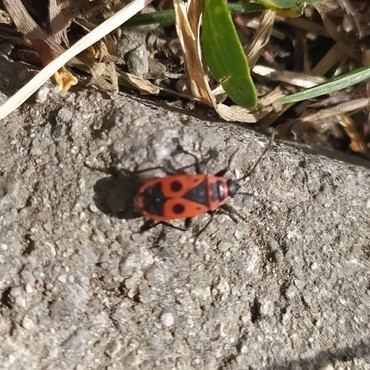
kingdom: Animalia
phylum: Arthropoda
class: Insecta
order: Hemiptera
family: Pyrrhocoridae
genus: Pyrrhocoris
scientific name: Pyrrhocoris apterus
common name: Firebug
